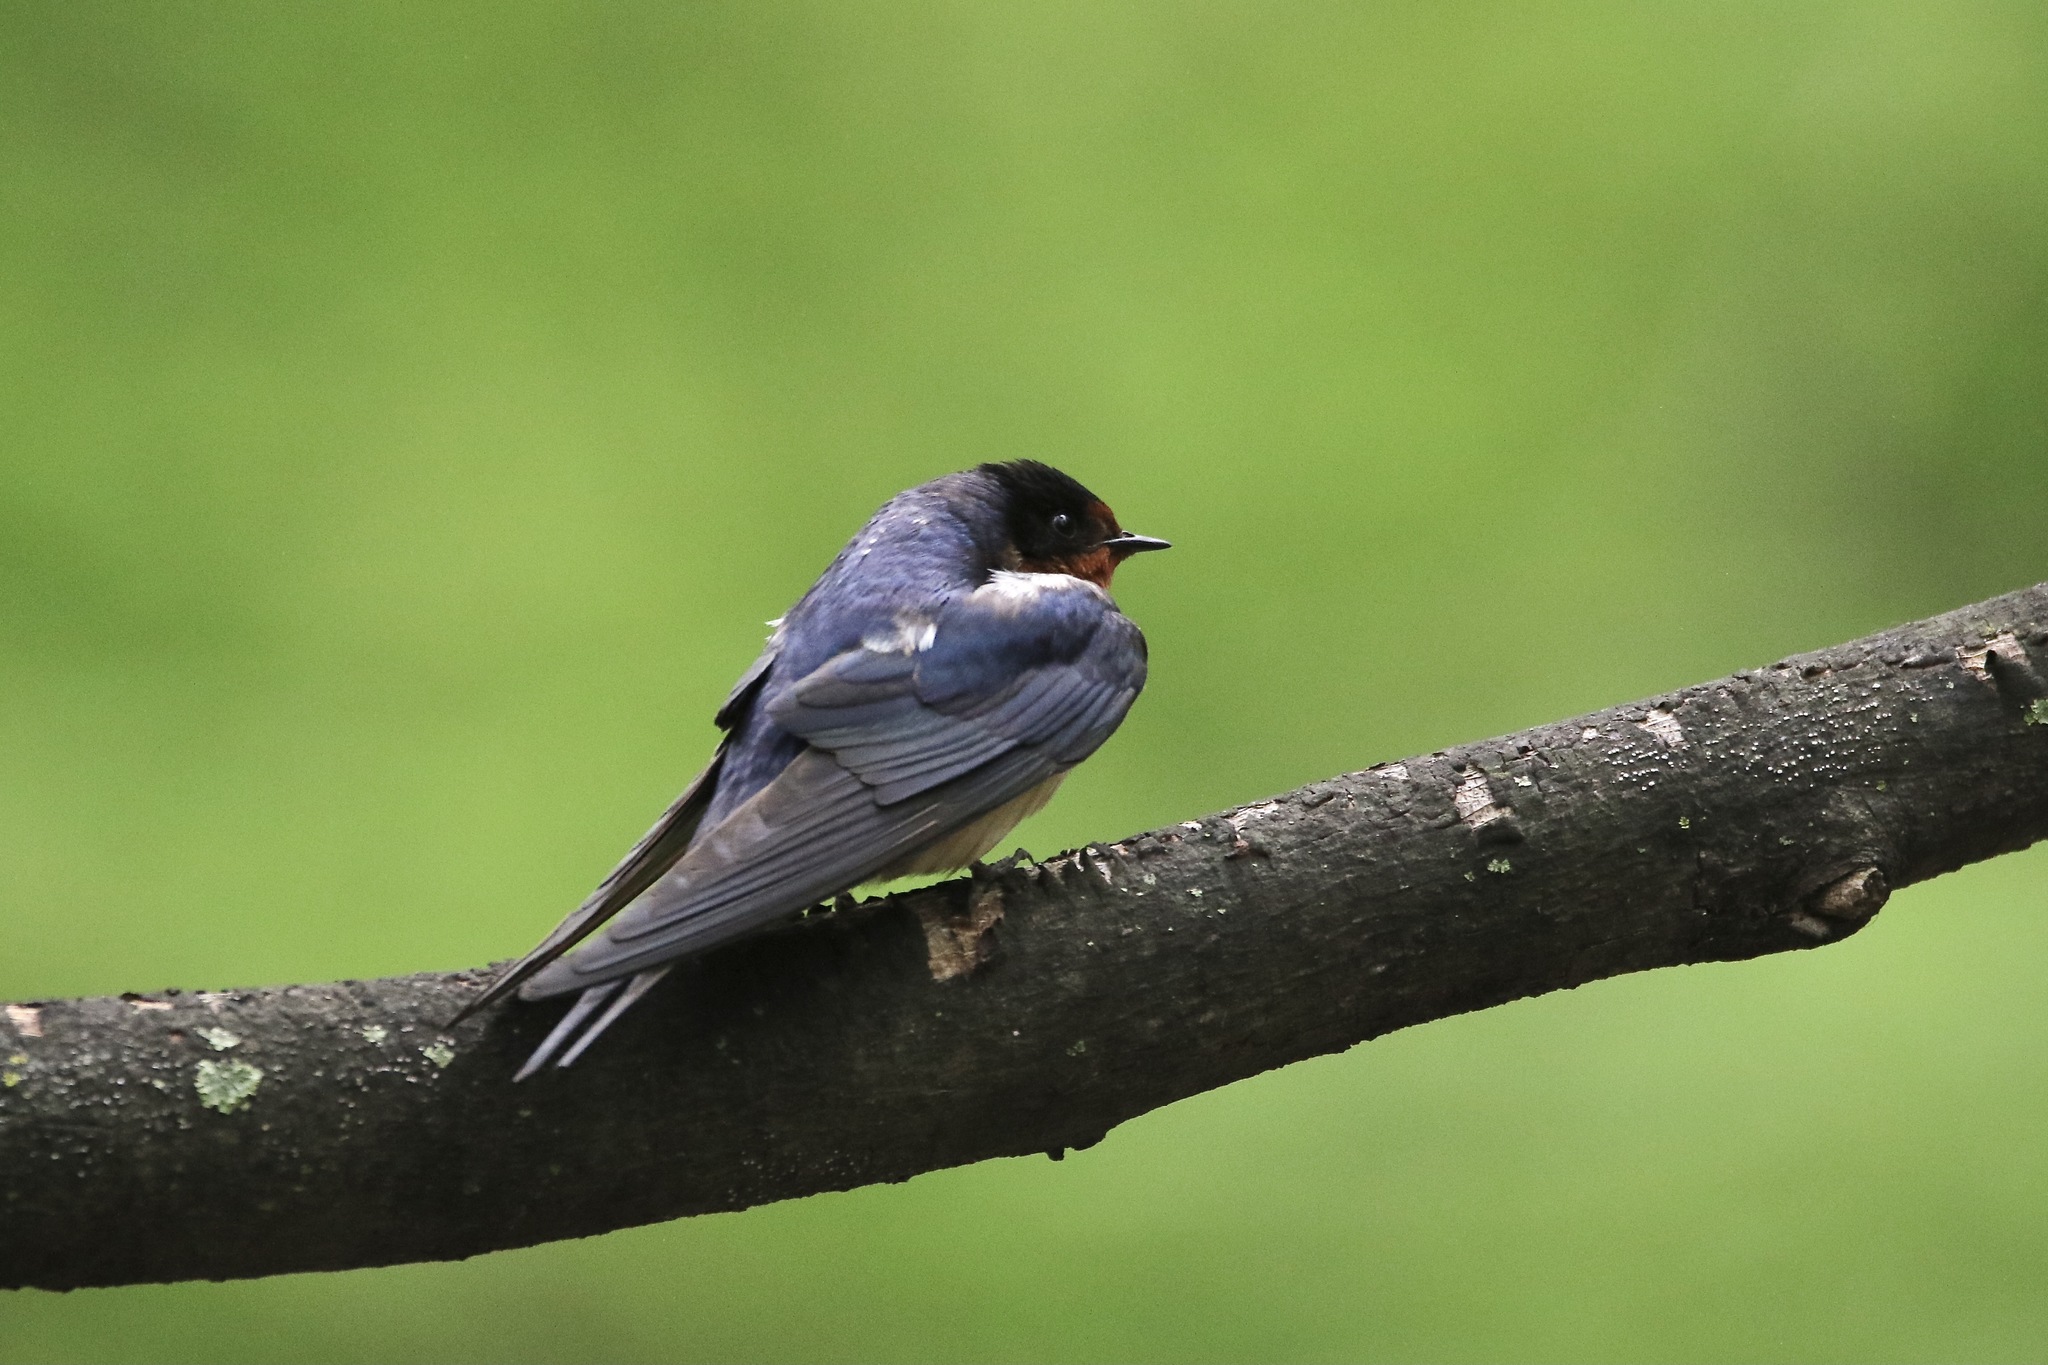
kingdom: Animalia
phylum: Chordata
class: Aves
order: Passeriformes
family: Hirundinidae
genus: Hirundo
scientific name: Hirundo rustica
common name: Barn swallow
